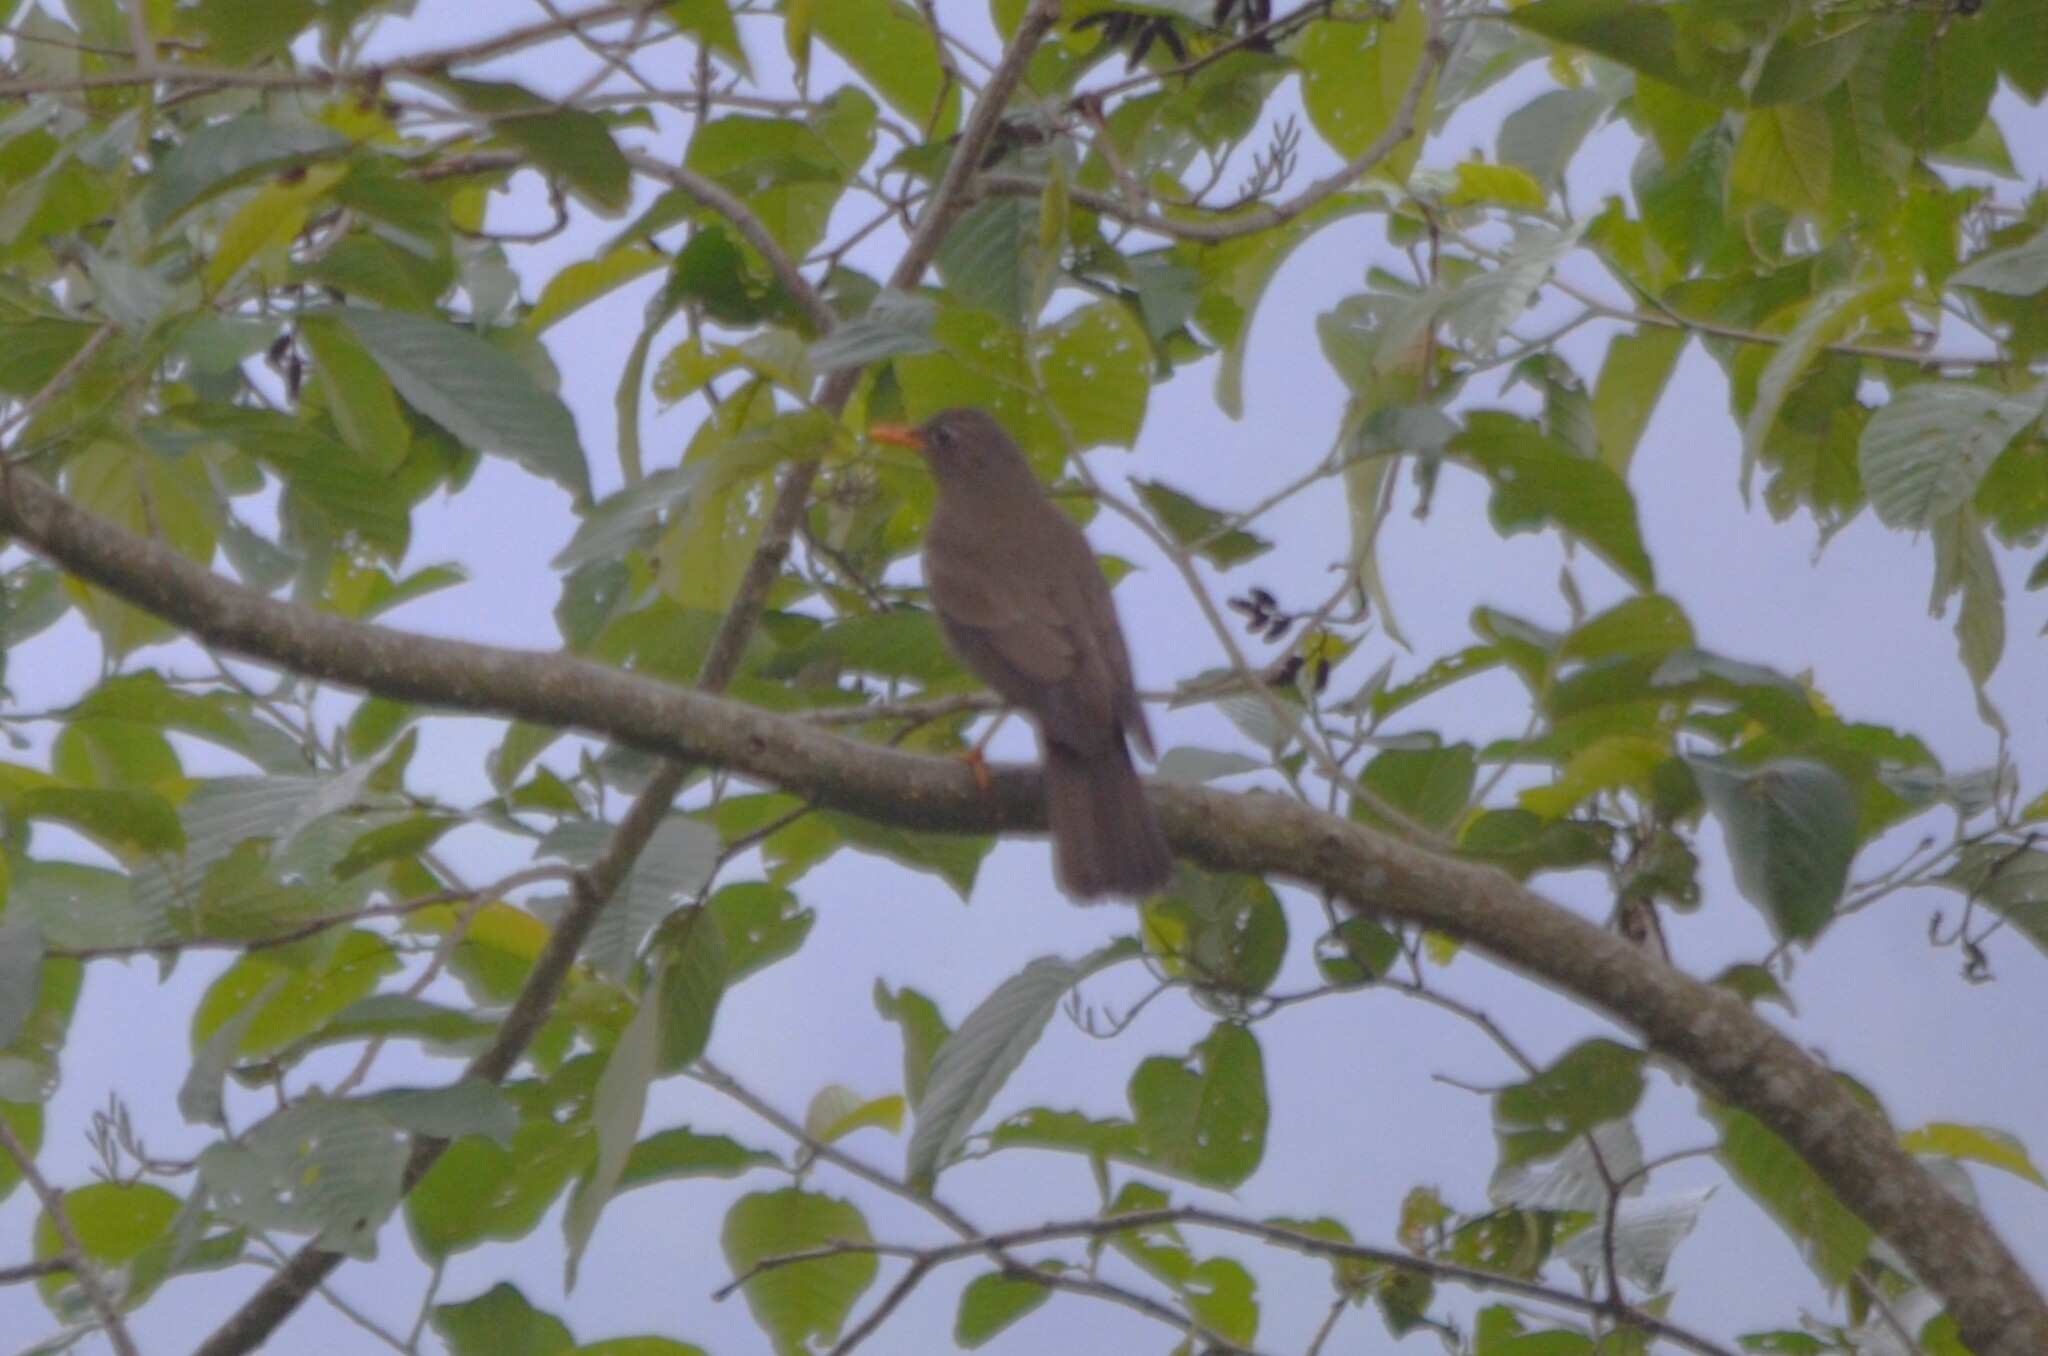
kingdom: Animalia
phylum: Chordata
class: Aves
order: Passeriformes
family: Turdidae
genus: Turdus
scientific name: Turdus boulboul
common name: Grey-winged blackbird
